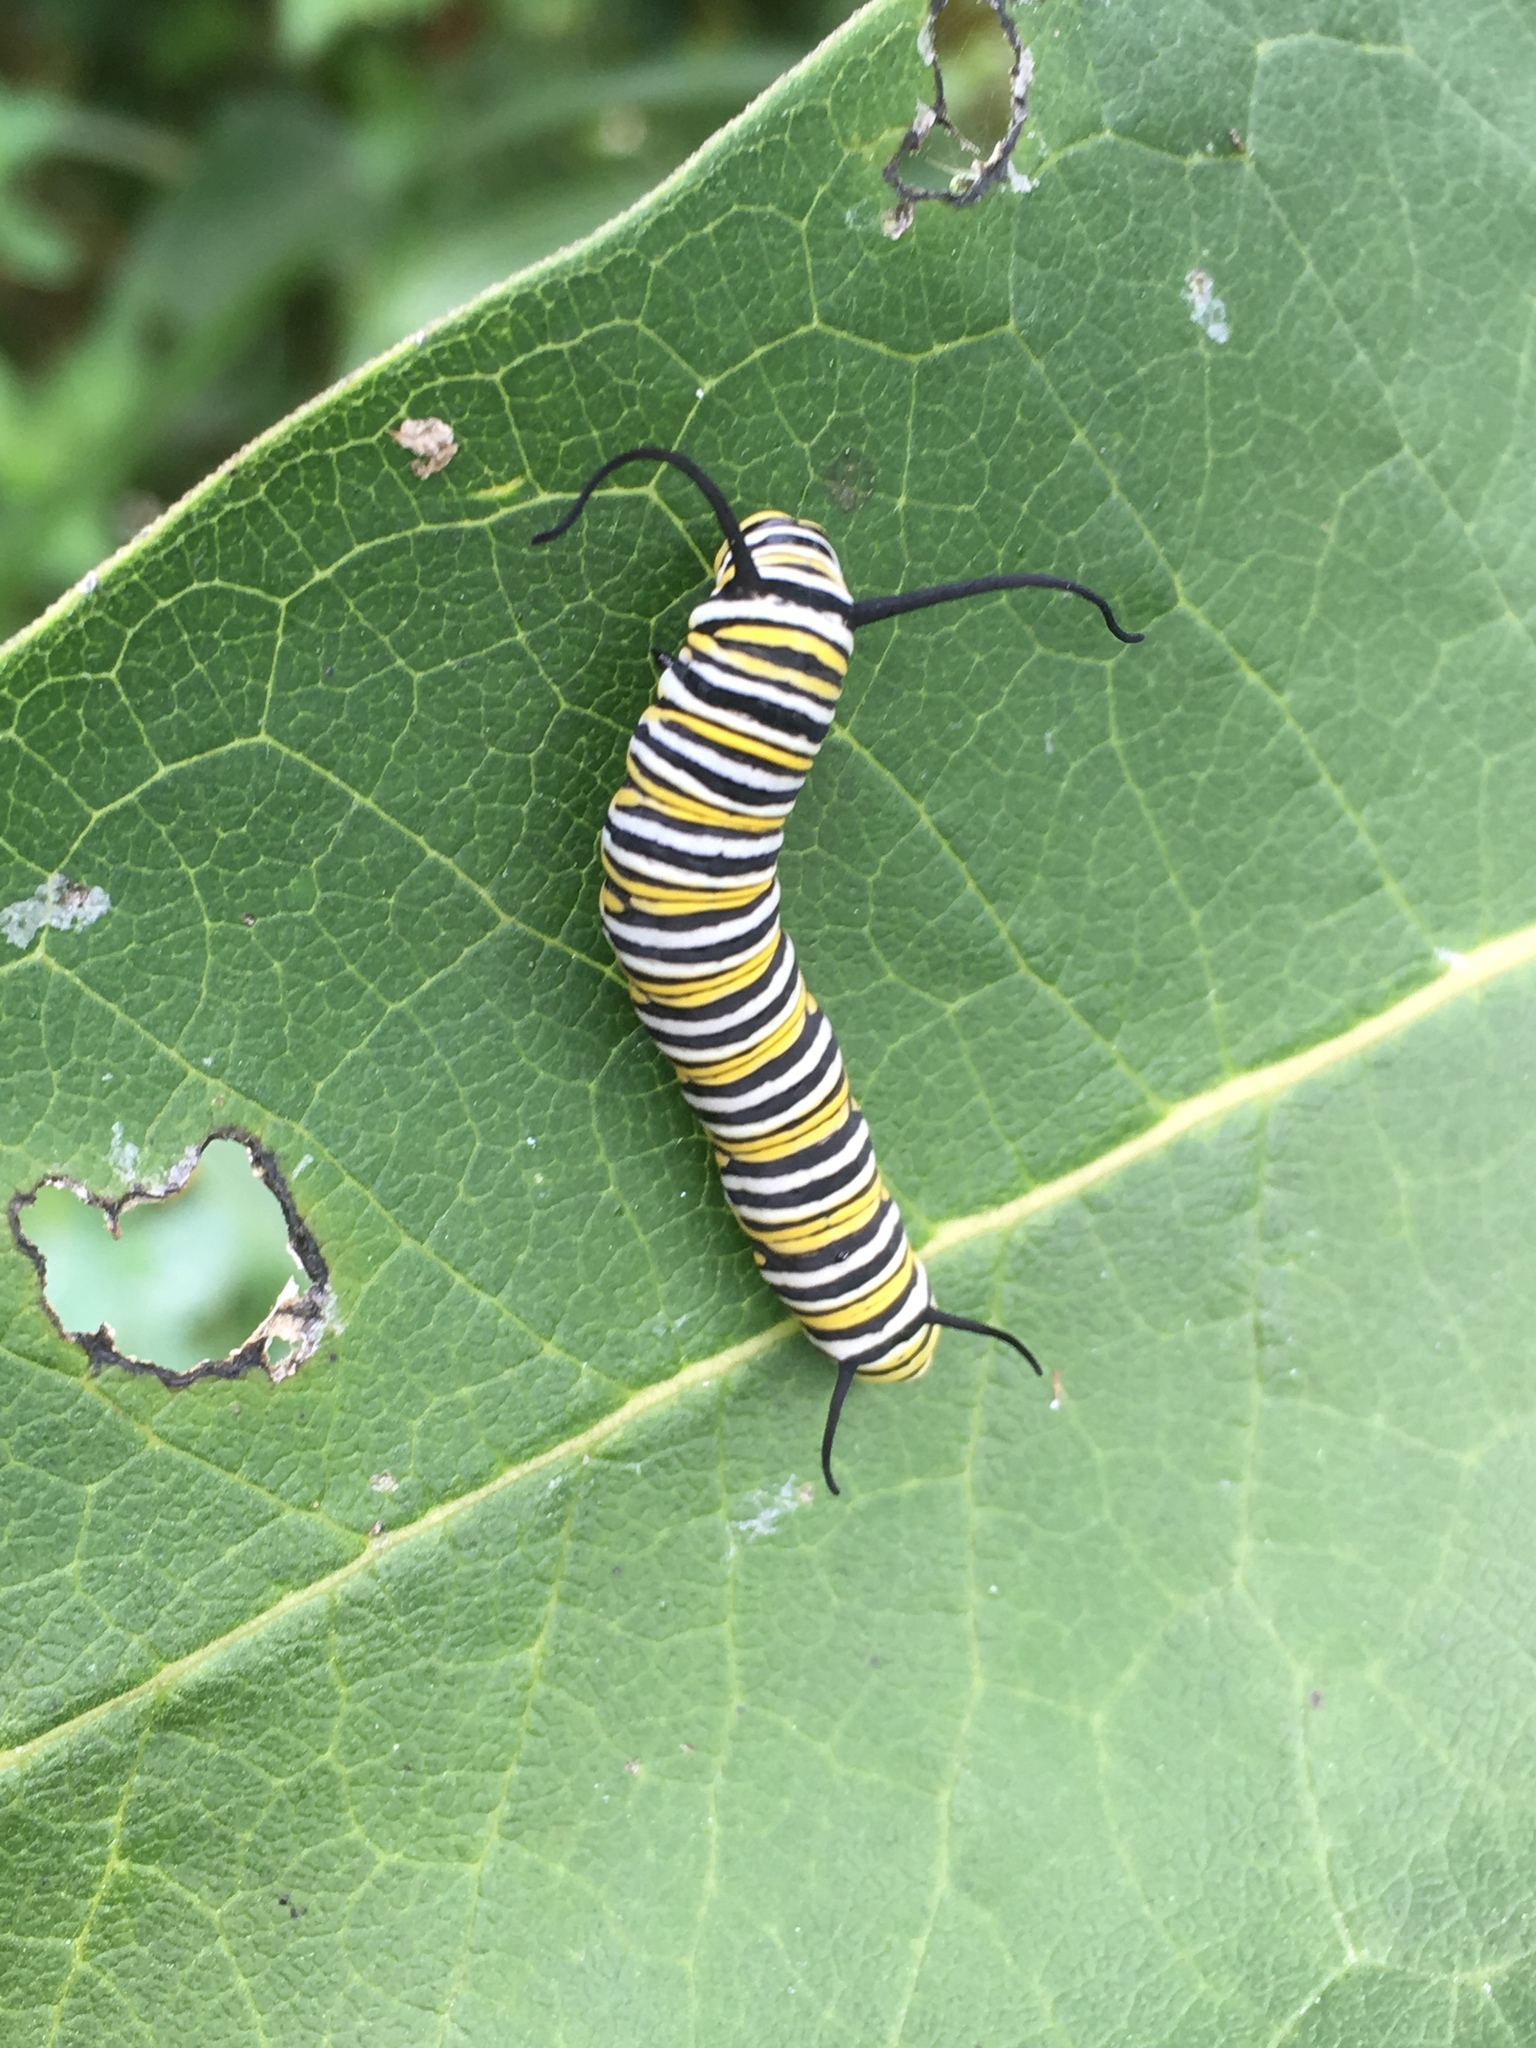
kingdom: Animalia
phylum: Arthropoda
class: Insecta
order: Lepidoptera
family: Nymphalidae
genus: Danaus
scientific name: Danaus plexippus
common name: Monarch
